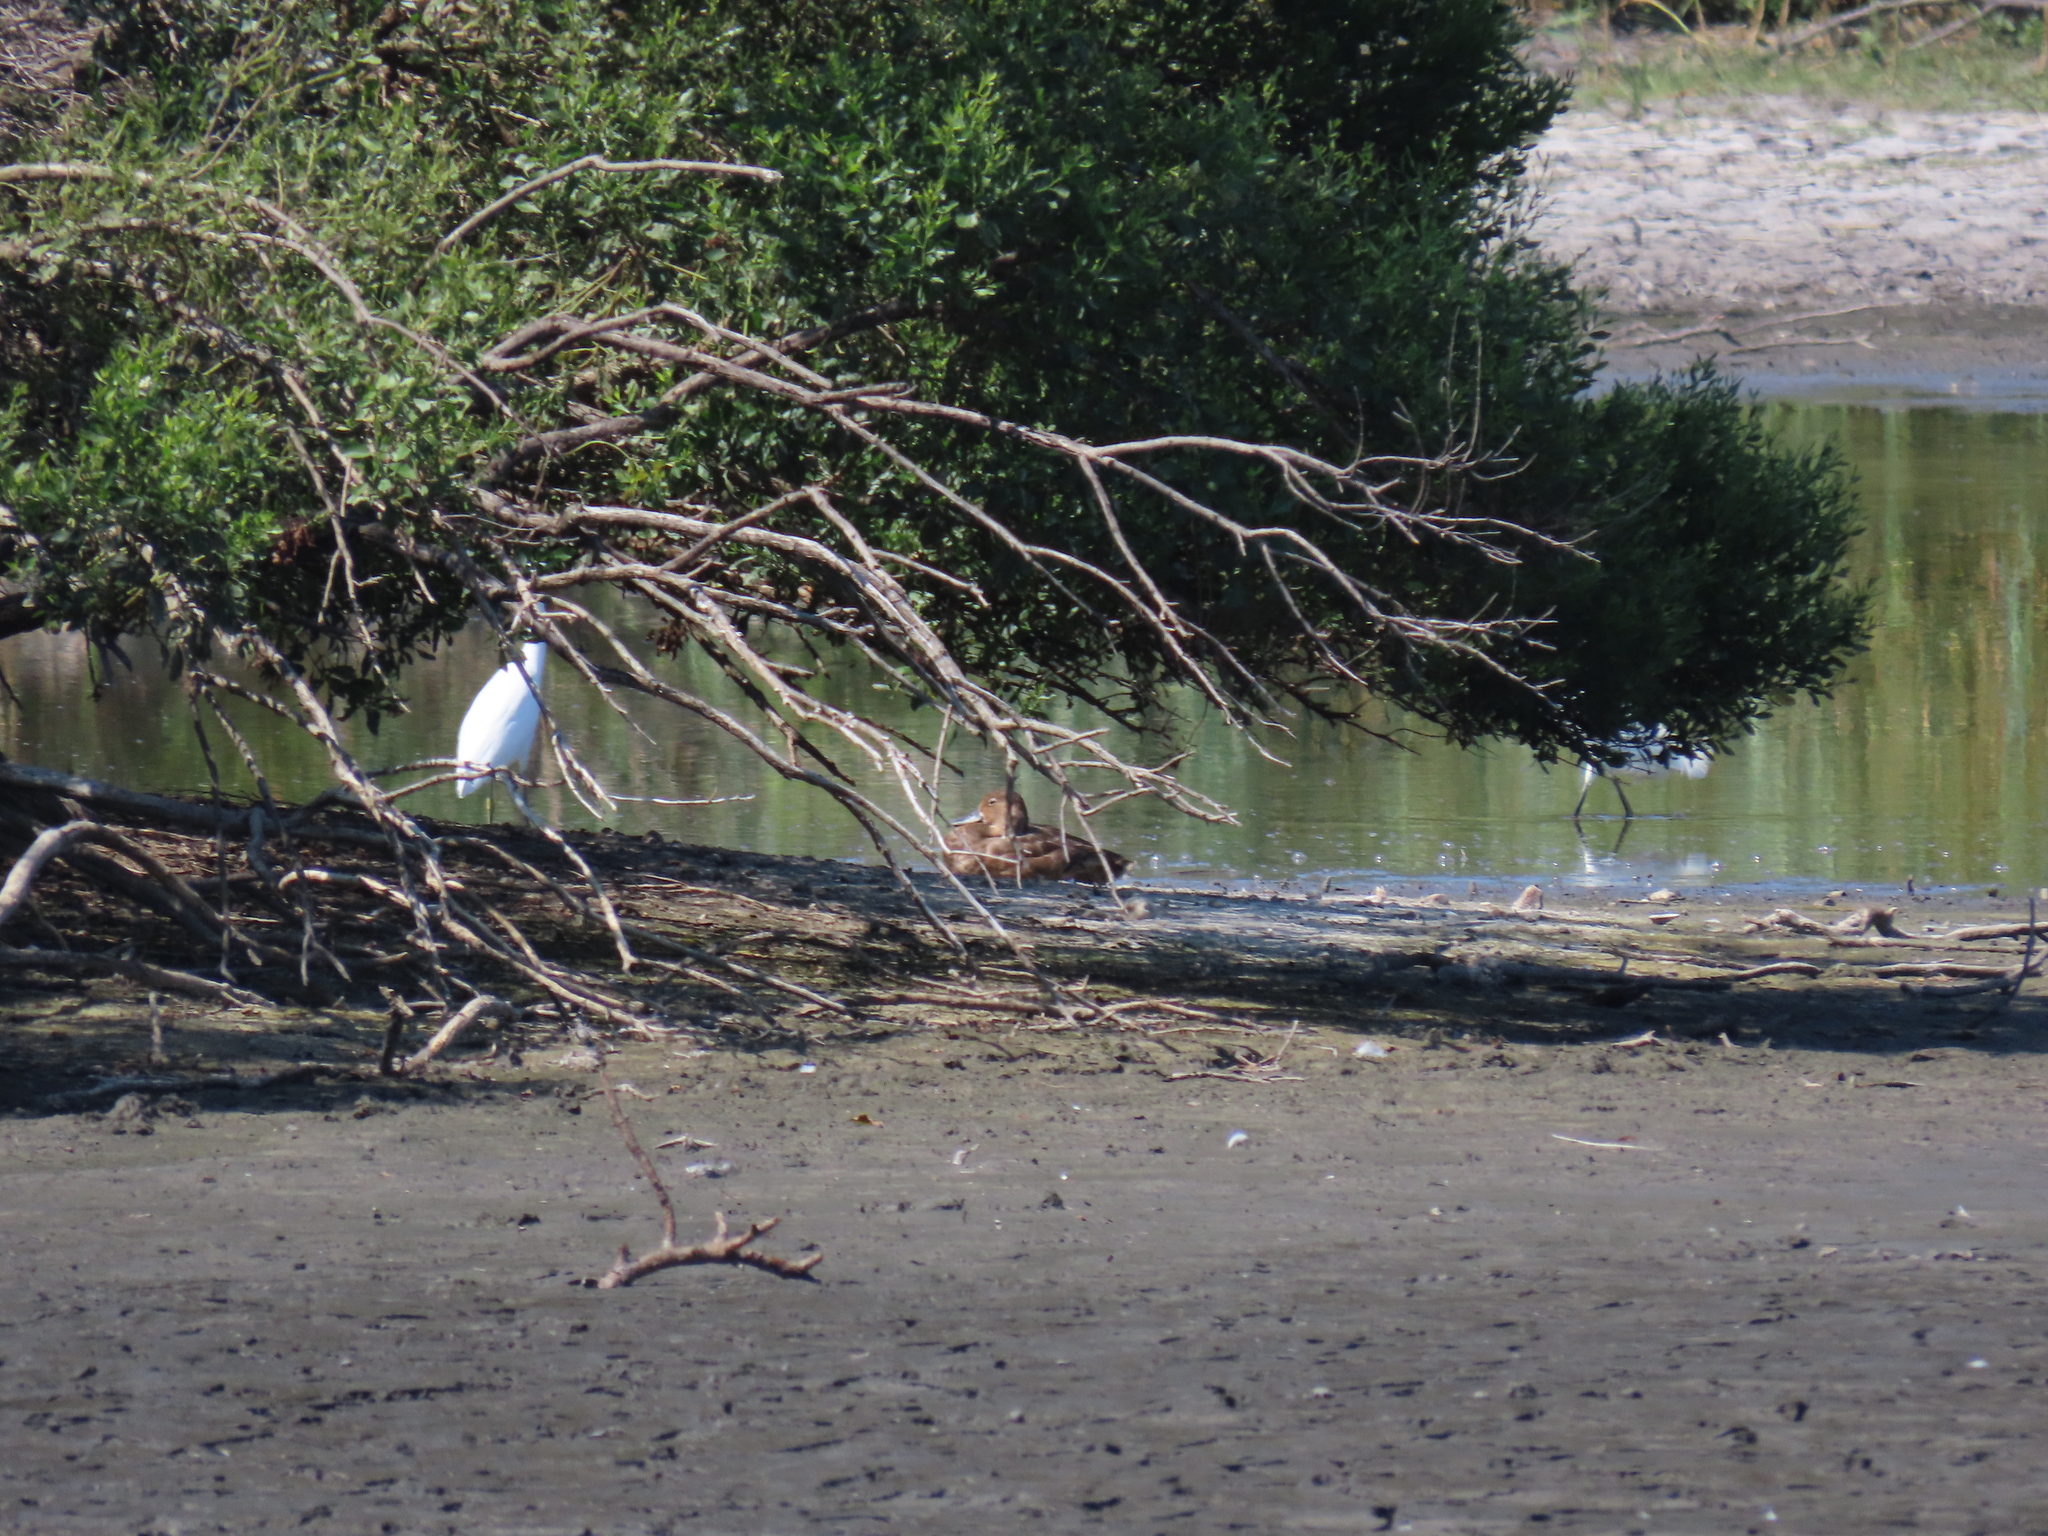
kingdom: Animalia
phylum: Chordata
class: Aves
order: Anseriformes
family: Anatidae
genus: Aythya
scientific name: Aythya americana
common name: Redhead
